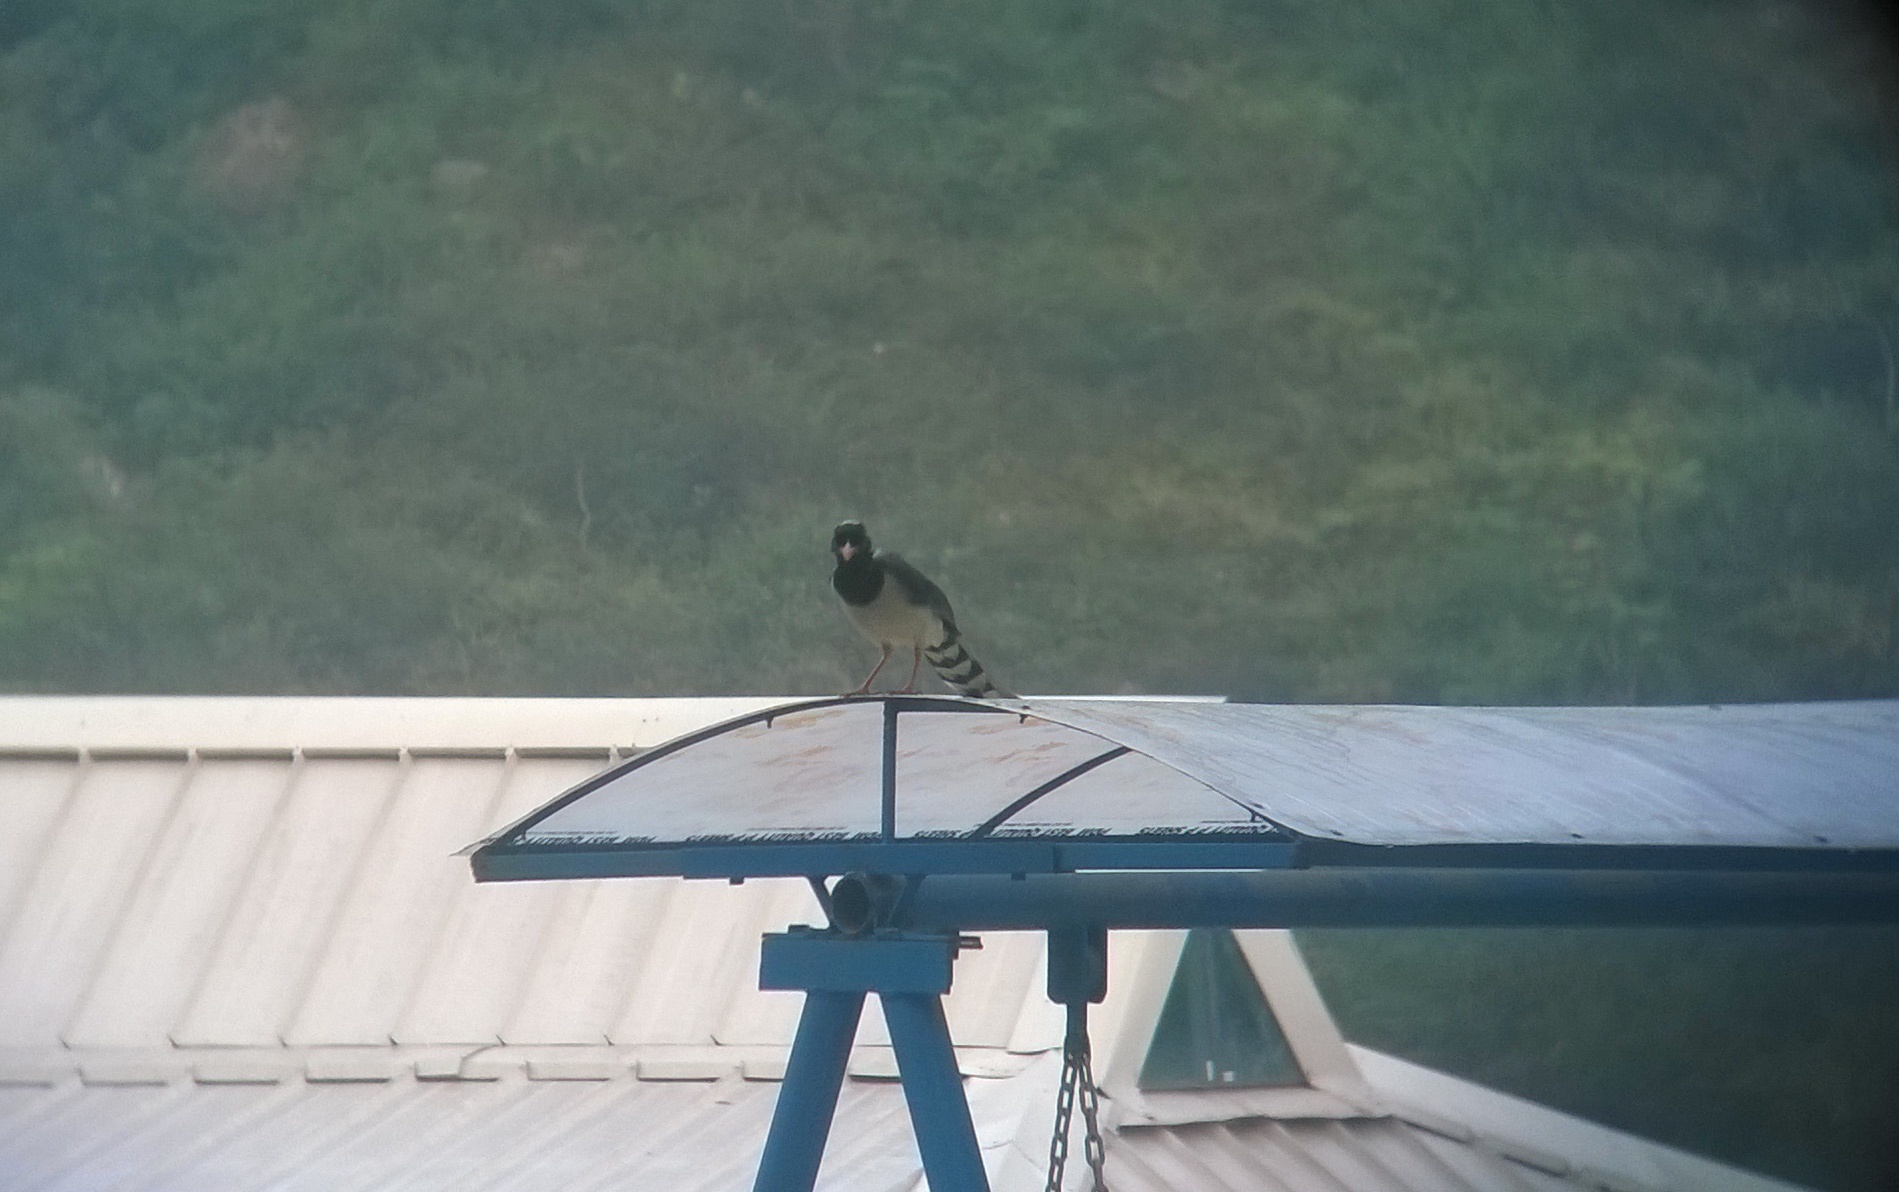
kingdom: Animalia
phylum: Chordata
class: Aves
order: Passeriformes
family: Corvidae
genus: Urocissa
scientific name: Urocissa erythroryncha
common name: Red-billed blue magpie
